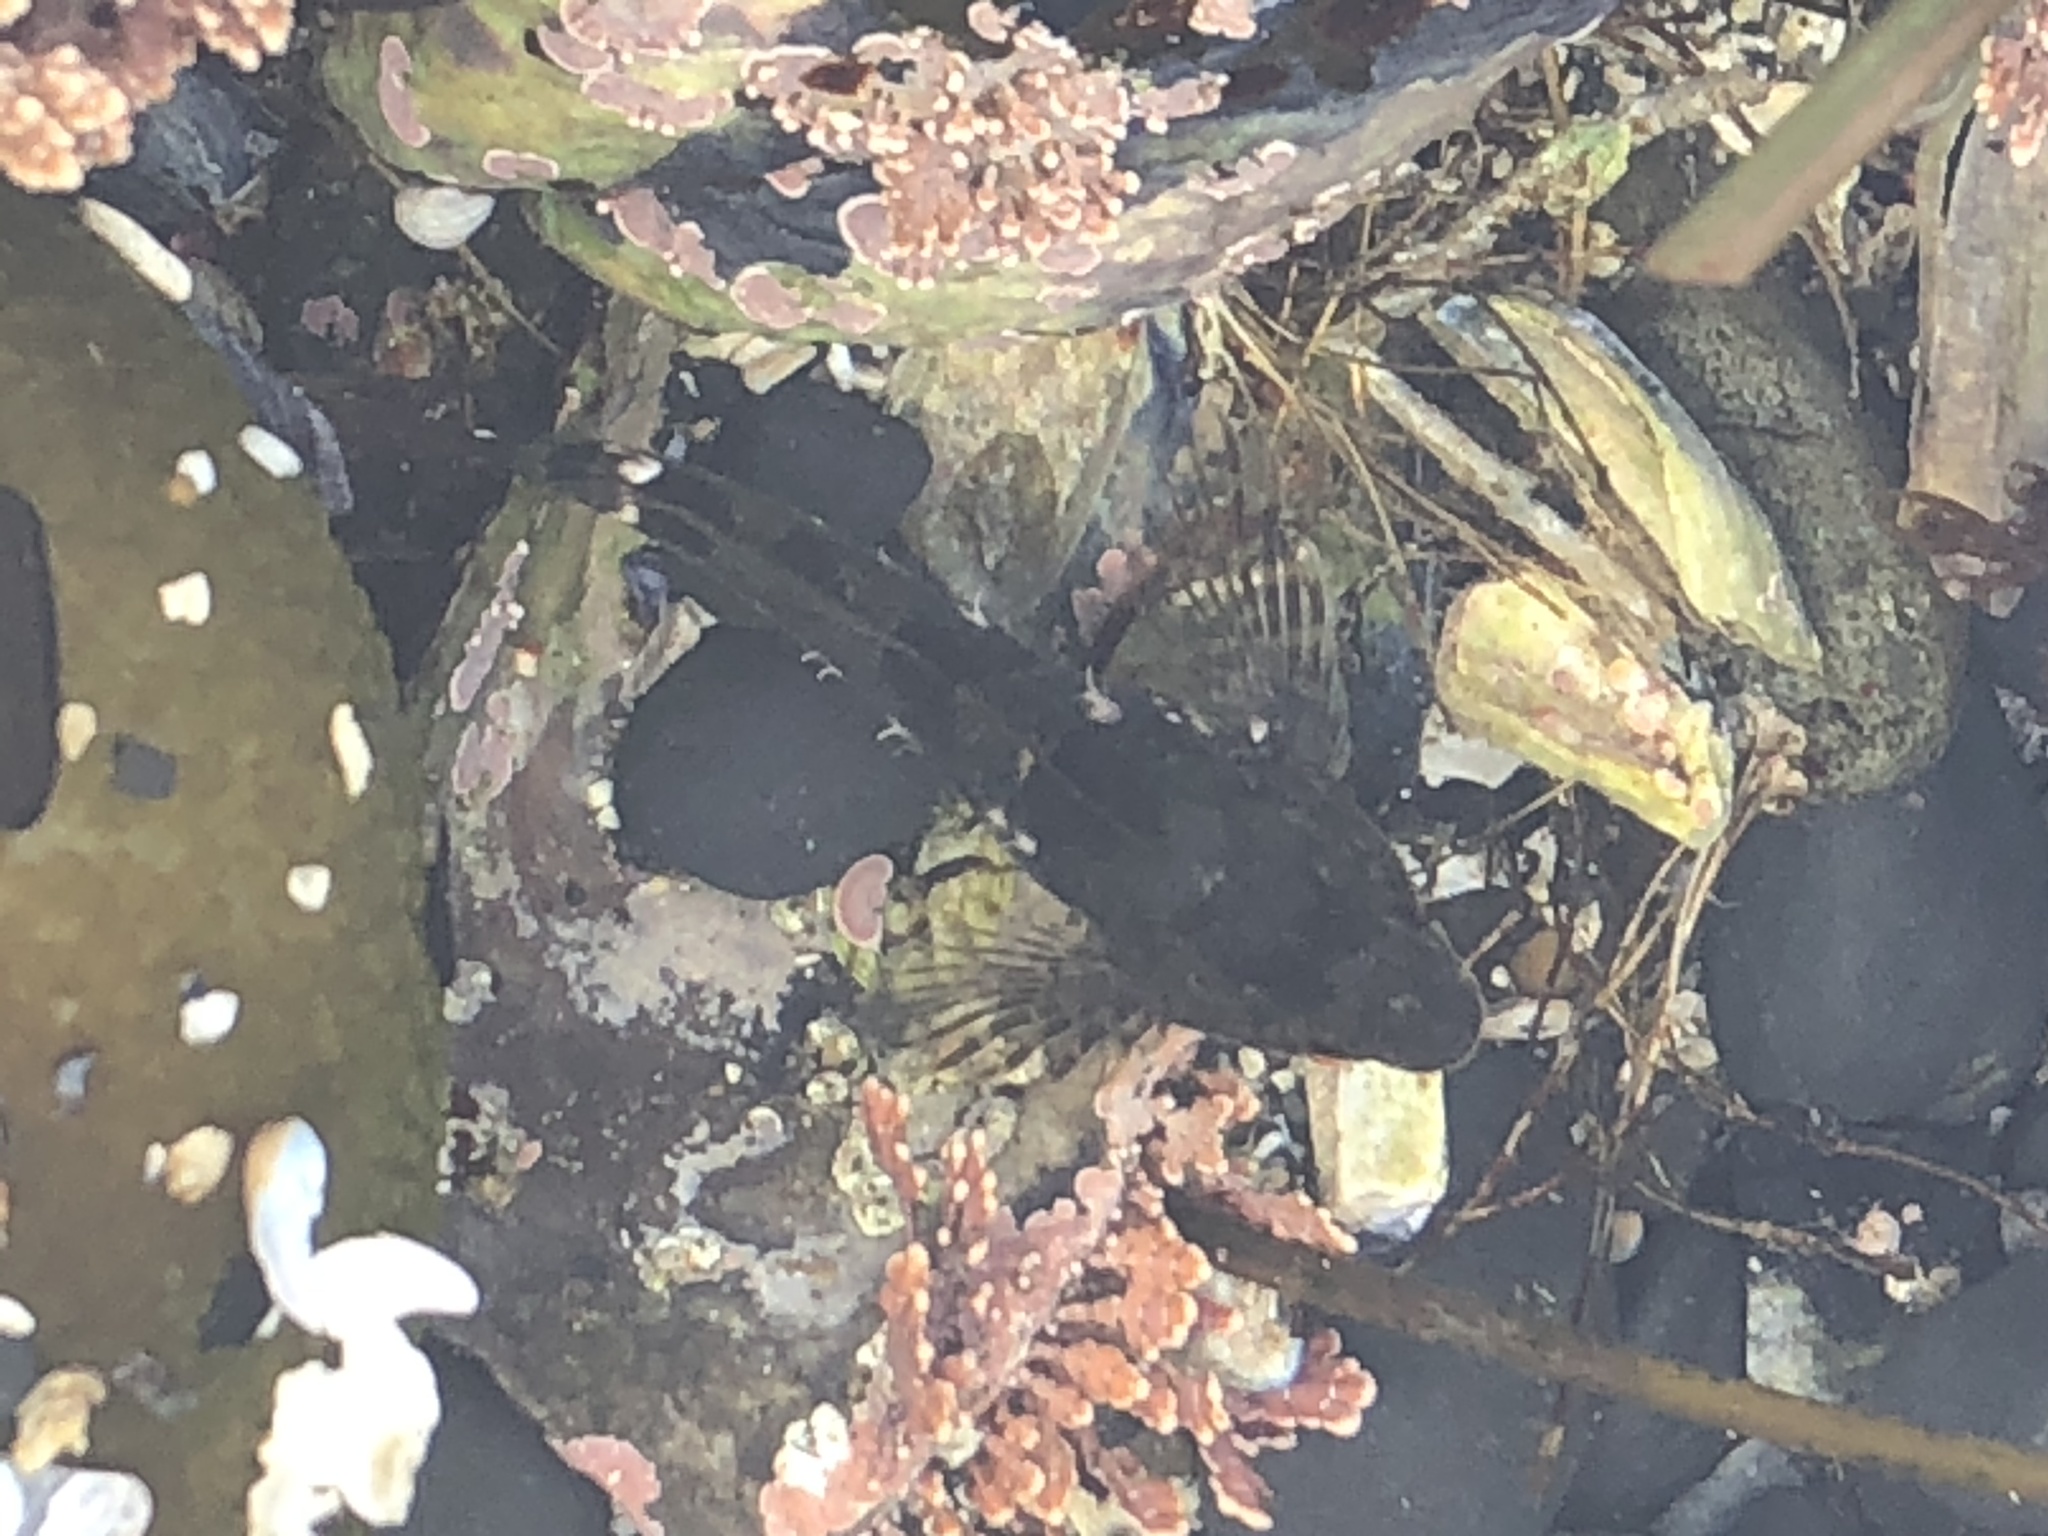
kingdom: Animalia
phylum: Chordata
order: Scorpaeniformes
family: Cottidae
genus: Oligocottus
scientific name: Oligocottus maculosus
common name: Tidepool sculpin
